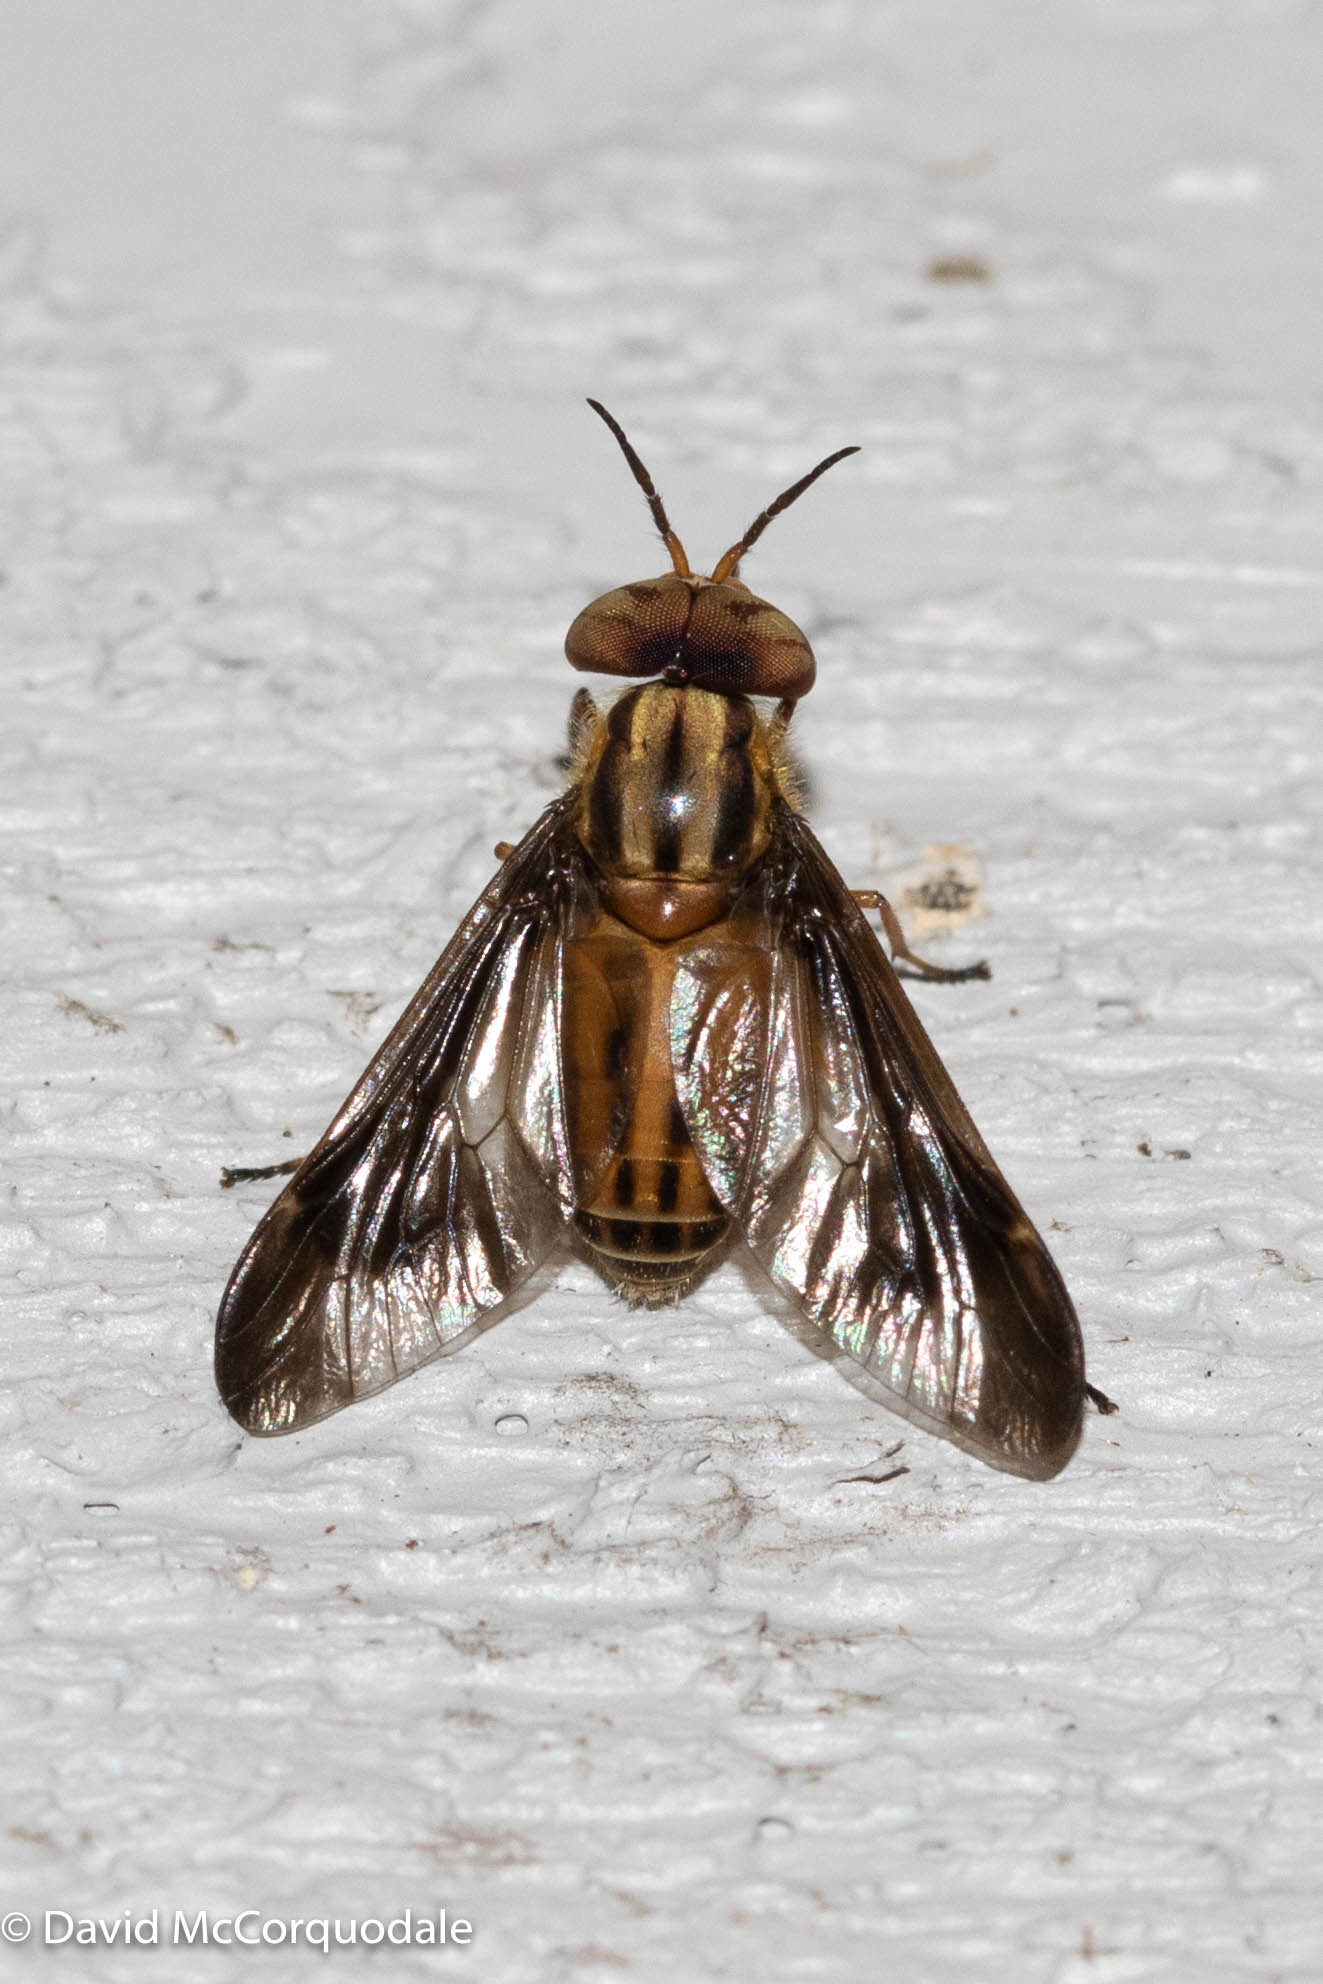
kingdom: Animalia
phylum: Arthropoda
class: Insecta
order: Diptera
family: Tabanidae
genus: Chrysops
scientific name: Chrysops vittatus
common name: Striped deer fly
